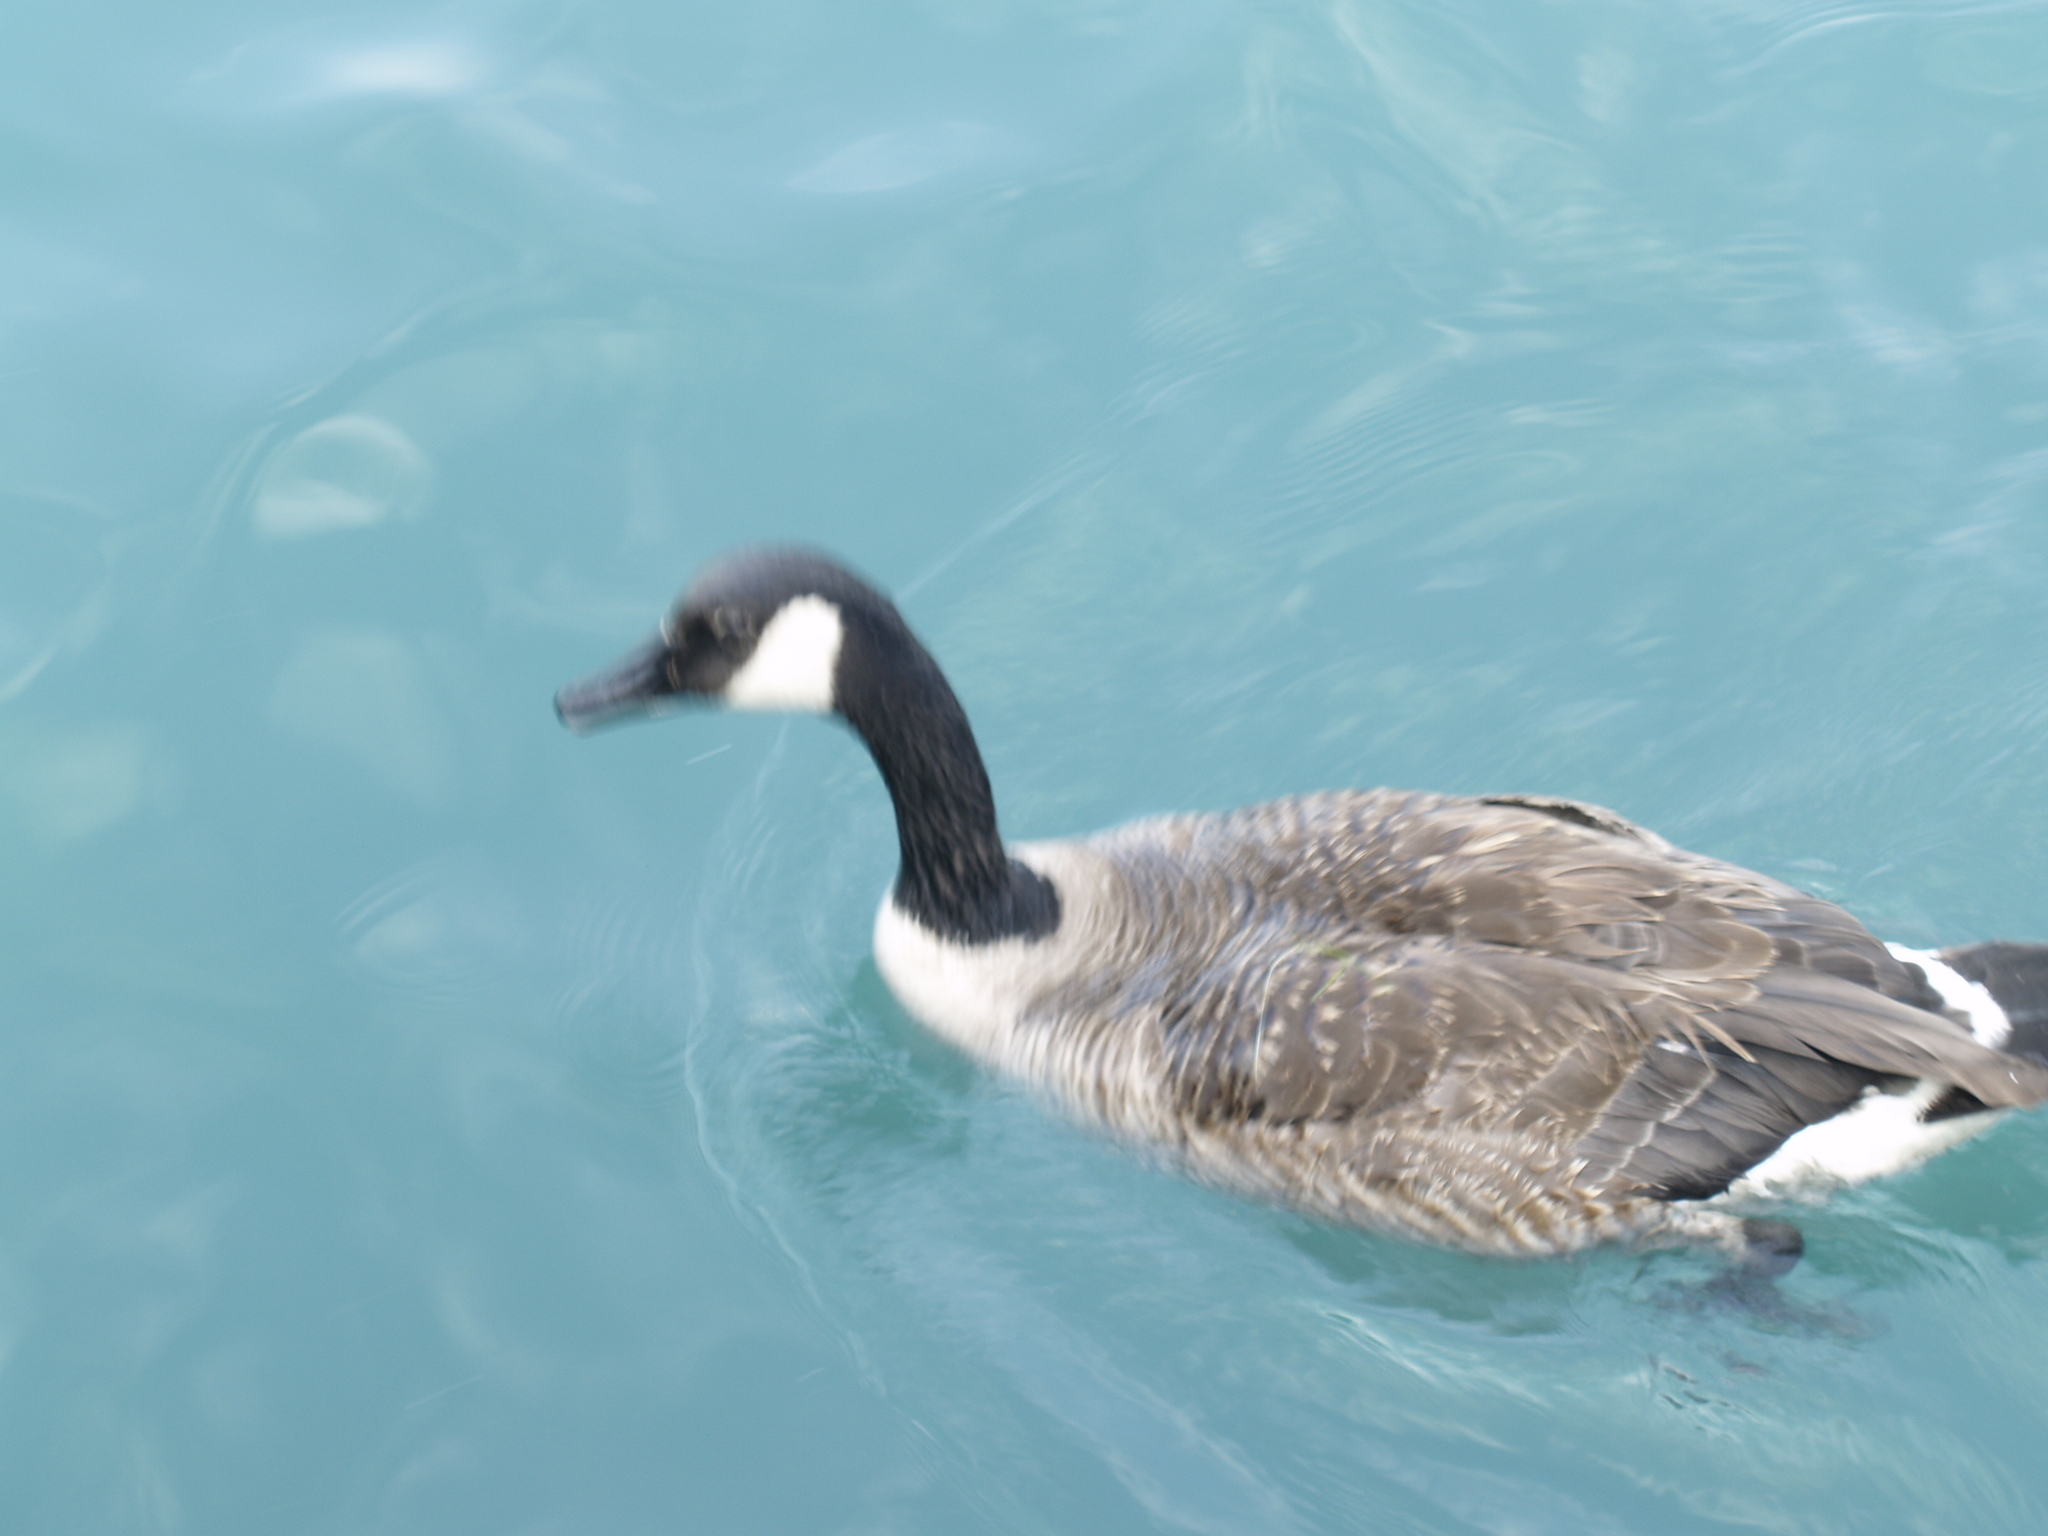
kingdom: Animalia
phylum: Chordata
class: Aves
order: Anseriformes
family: Anatidae
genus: Branta
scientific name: Branta canadensis
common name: Canada goose
